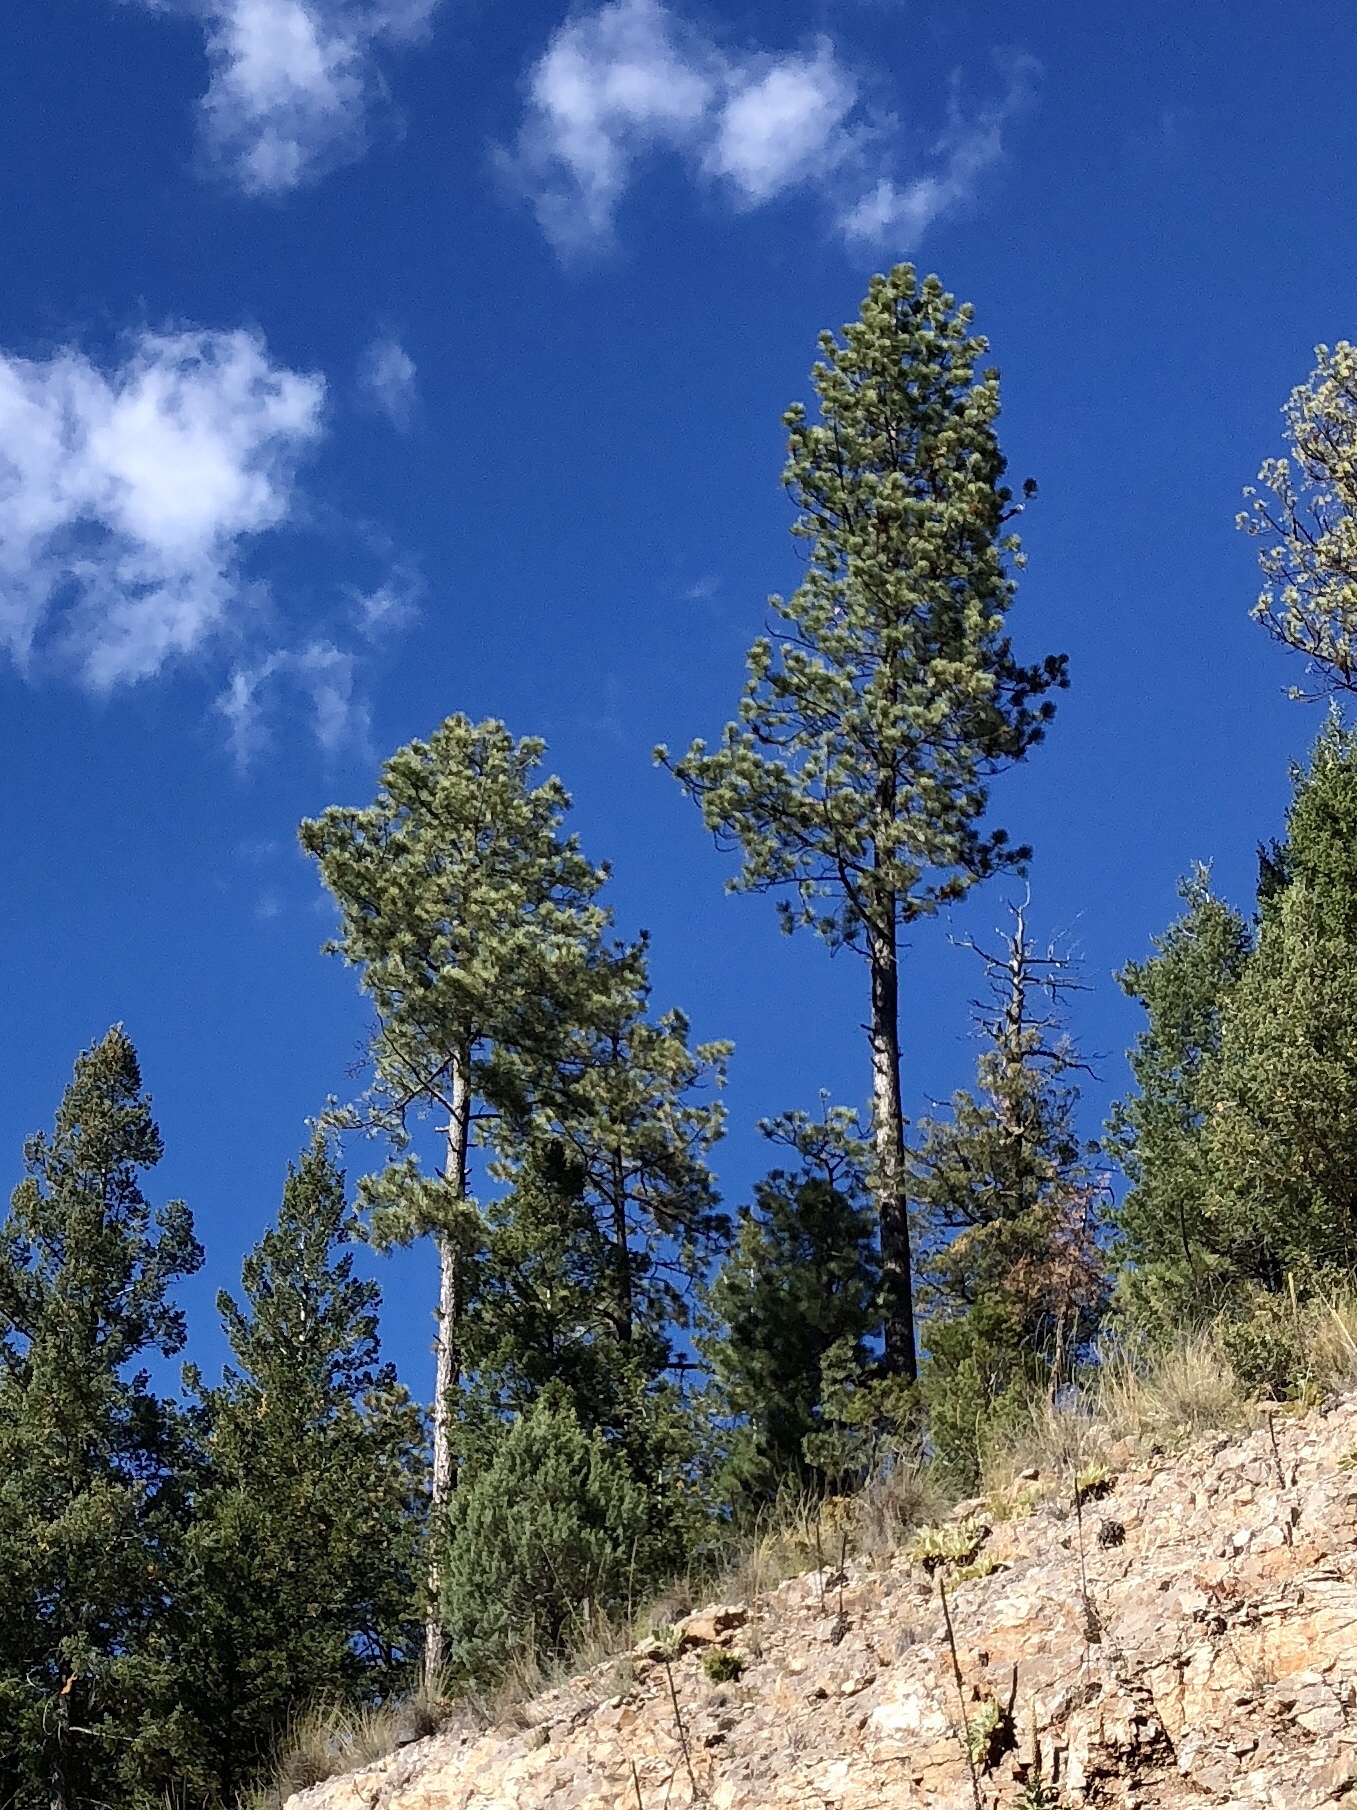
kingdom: Plantae
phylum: Tracheophyta
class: Pinopsida
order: Pinales
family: Pinaceae
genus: Pinus
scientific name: Pinus ponderosa
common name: Western yellow-pine
